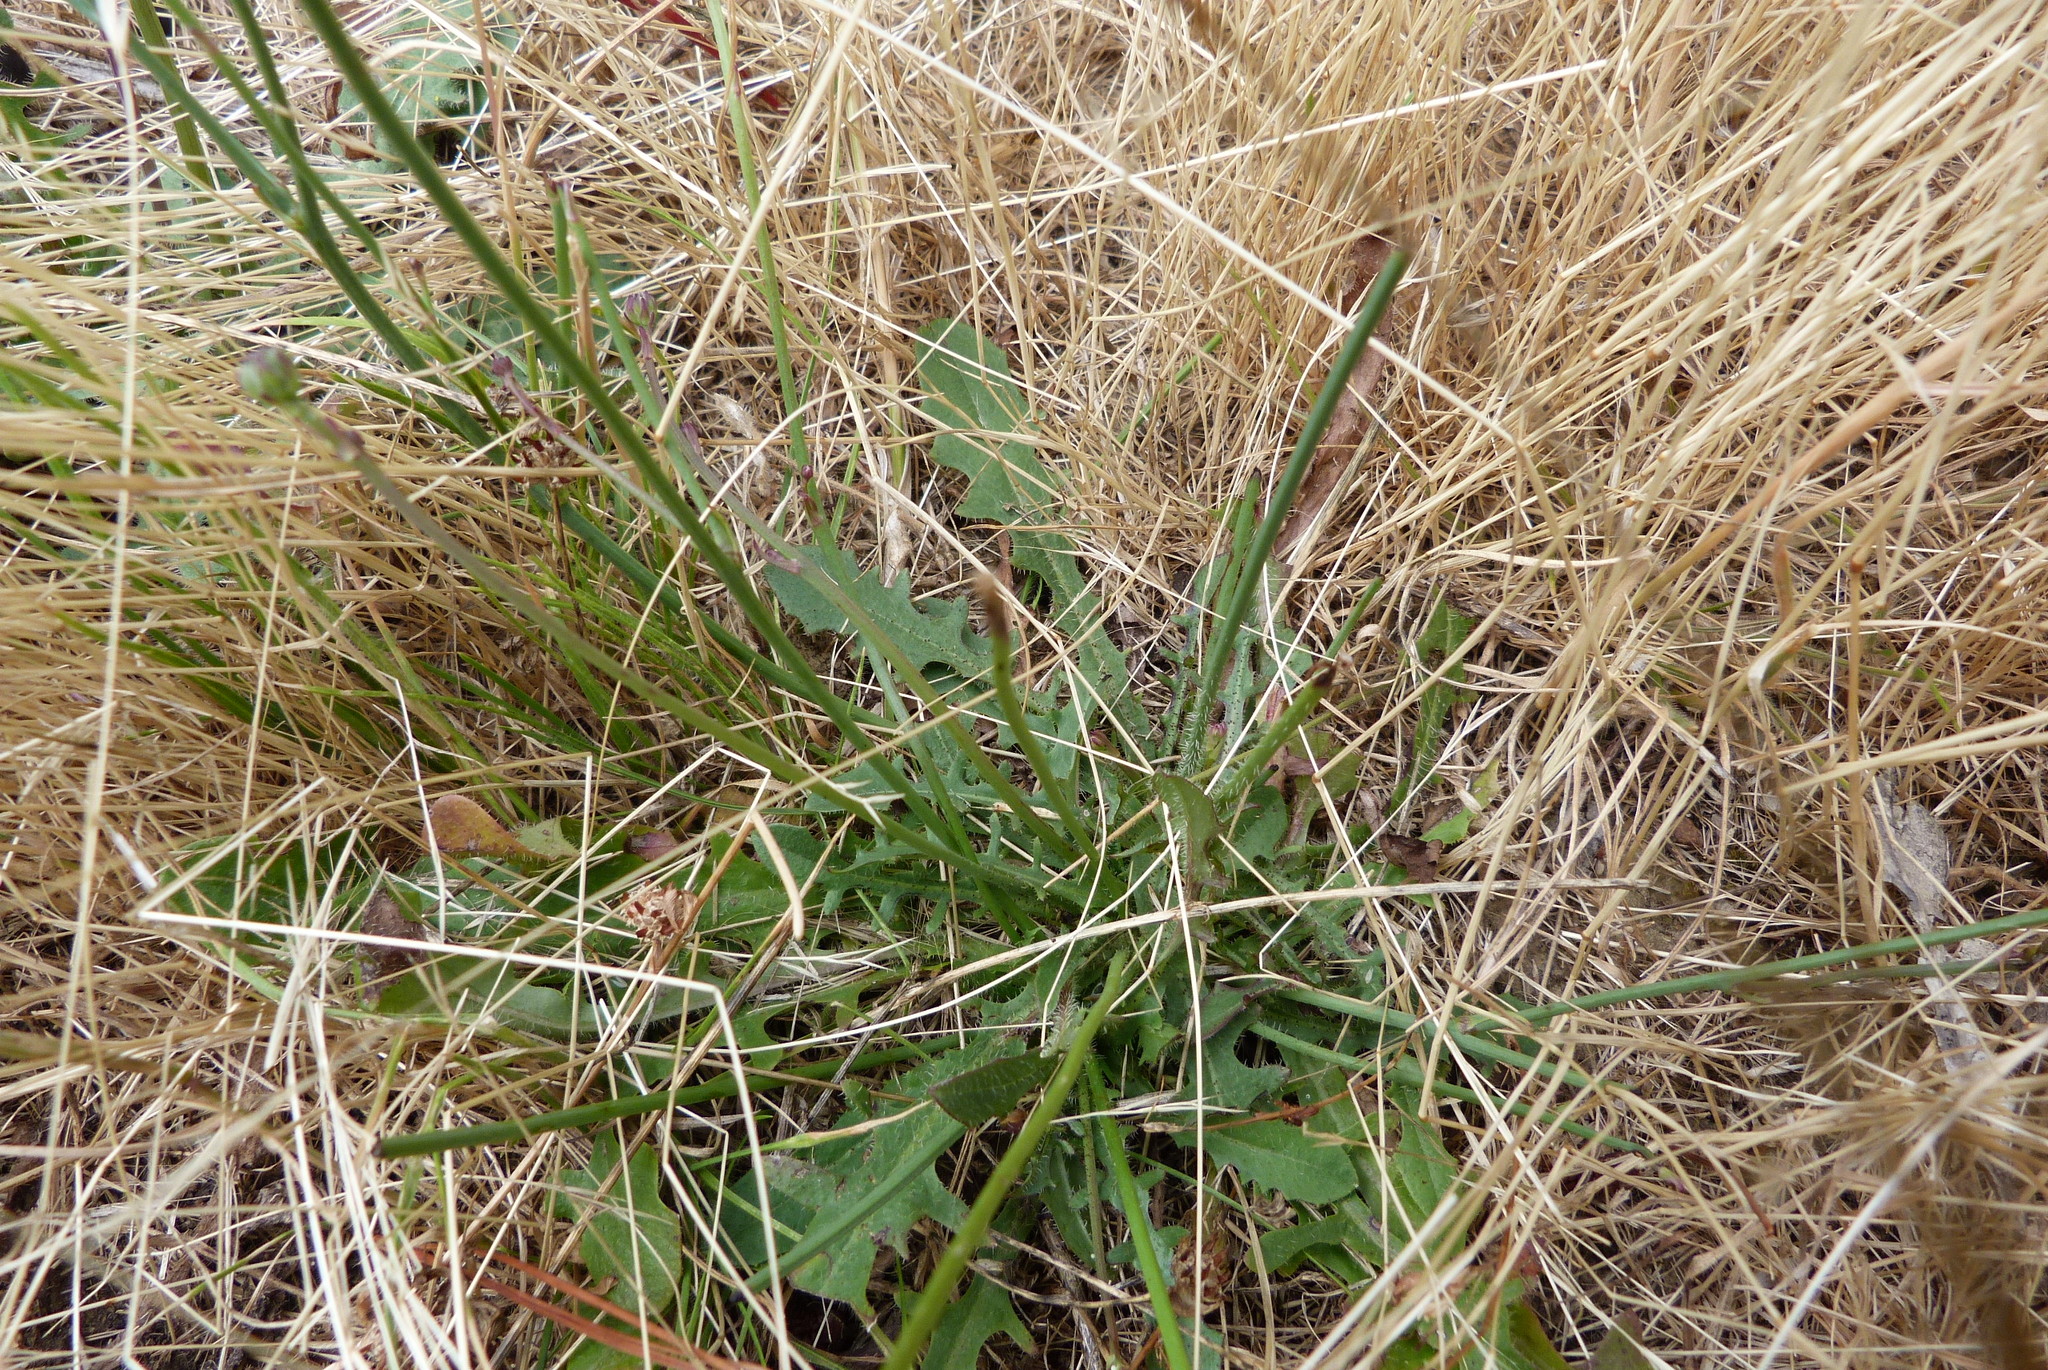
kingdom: Plantae
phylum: Tracheophyta
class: Magnoliopsida
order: Asterales
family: Asteraceae
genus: Hypochaeris
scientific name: Hypochaeris radicata
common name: Flatweed
